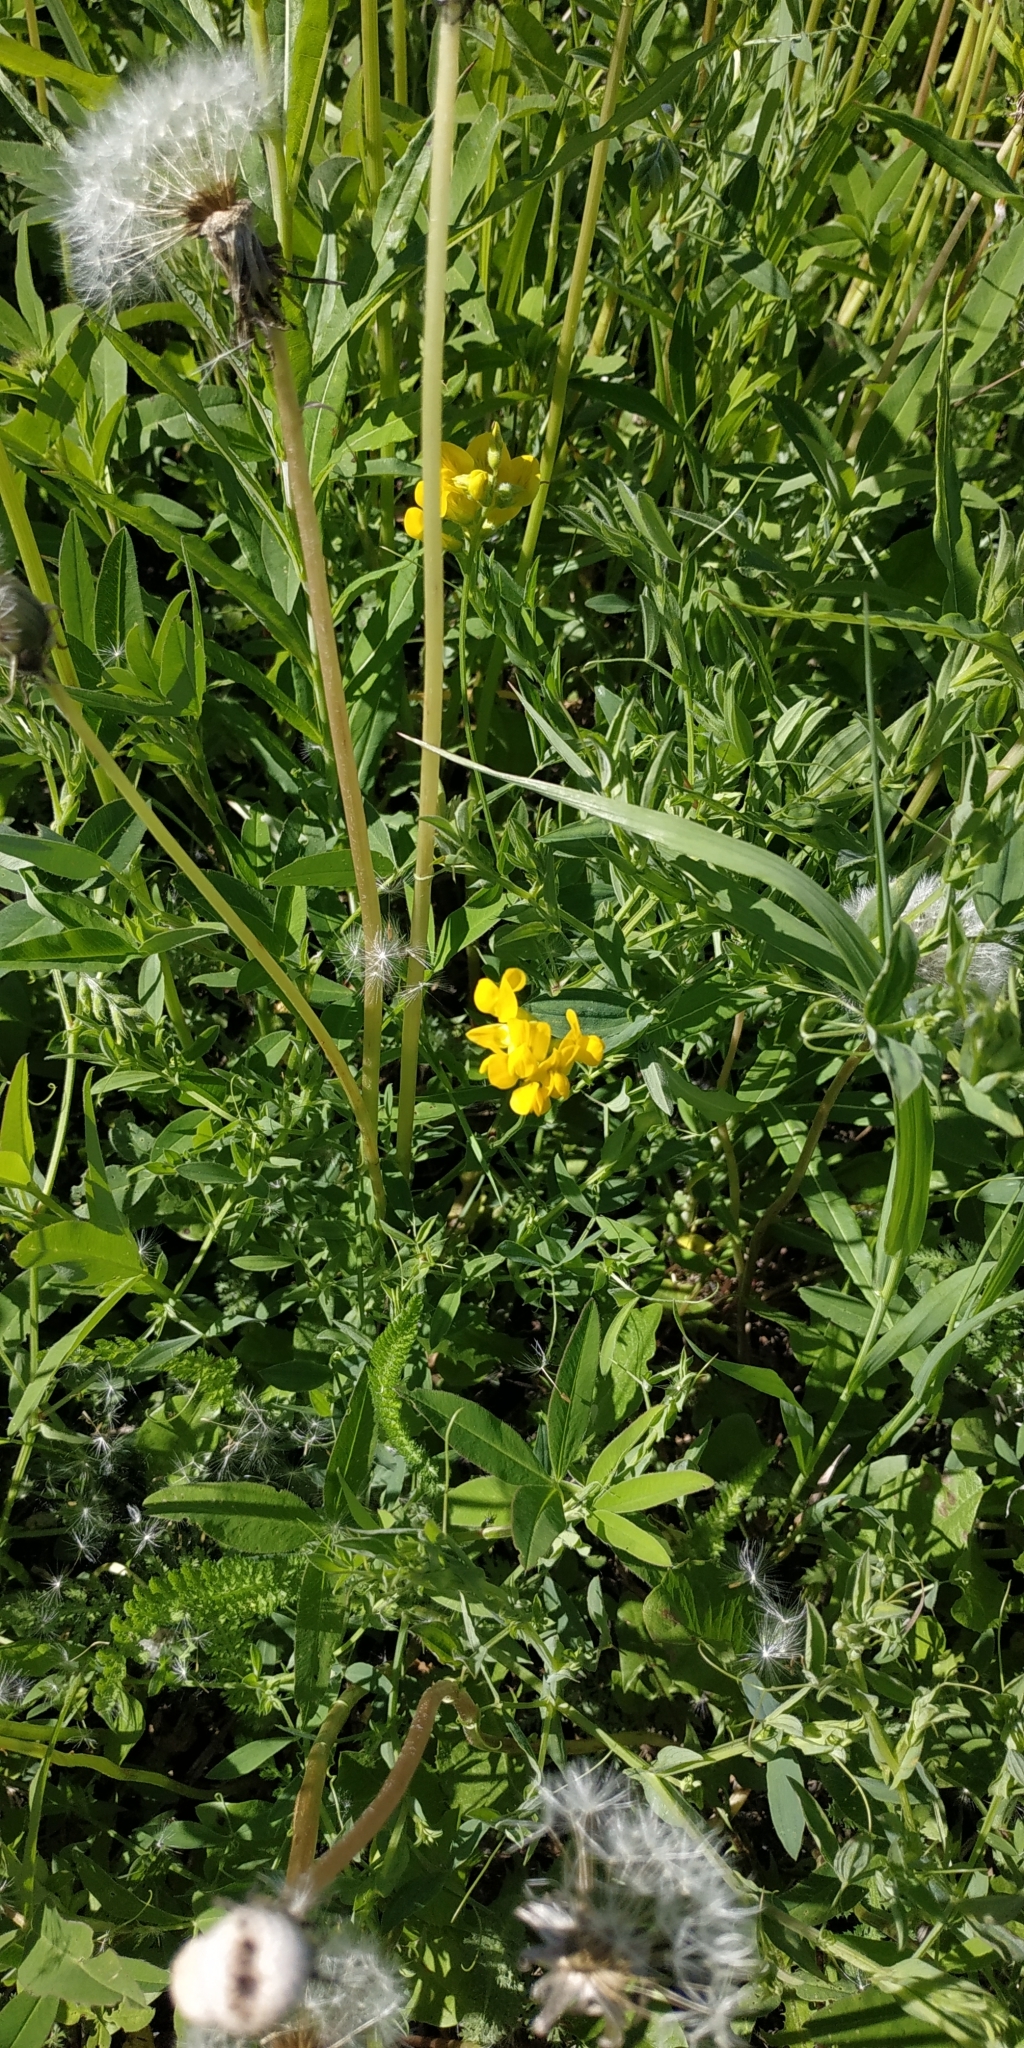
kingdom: Plantae
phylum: Tracheophyta
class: Magnoliopsida
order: Fabales
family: Fabaceae
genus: Lathyrus
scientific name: Lathyrus pratensis
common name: Meadow vetchling
